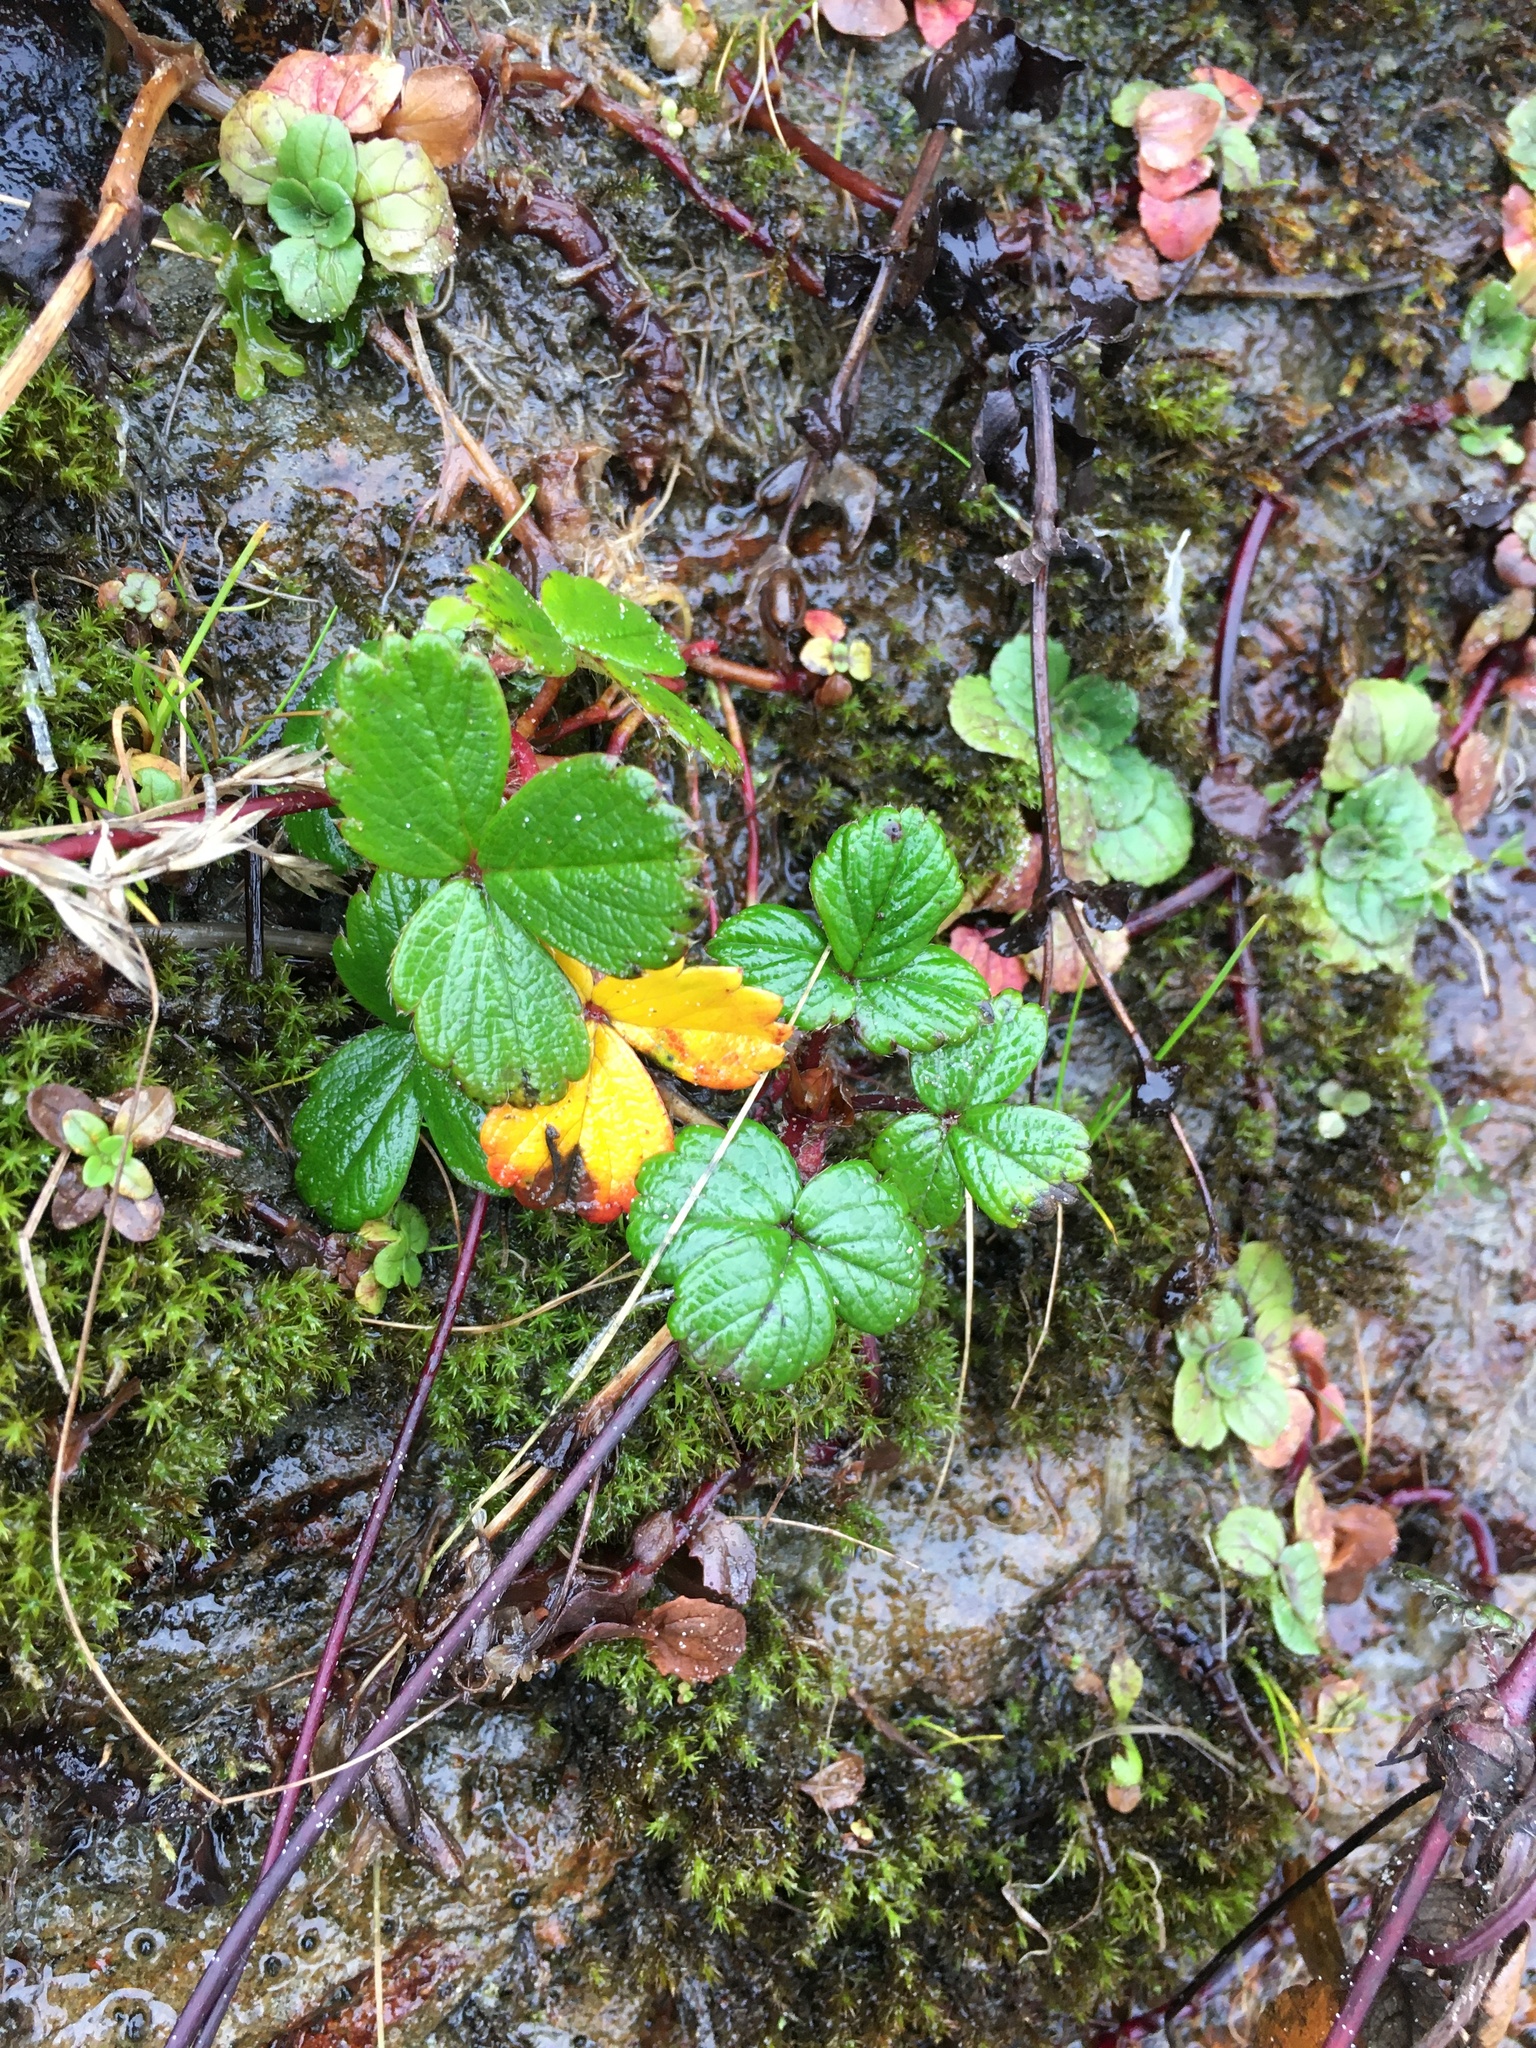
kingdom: Plantae
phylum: Tracheophyta
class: Magnoliopsida
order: Rosales
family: Rosaceae
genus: Fragaria
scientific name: Fragaria chiloensis
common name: Beach strawberry
